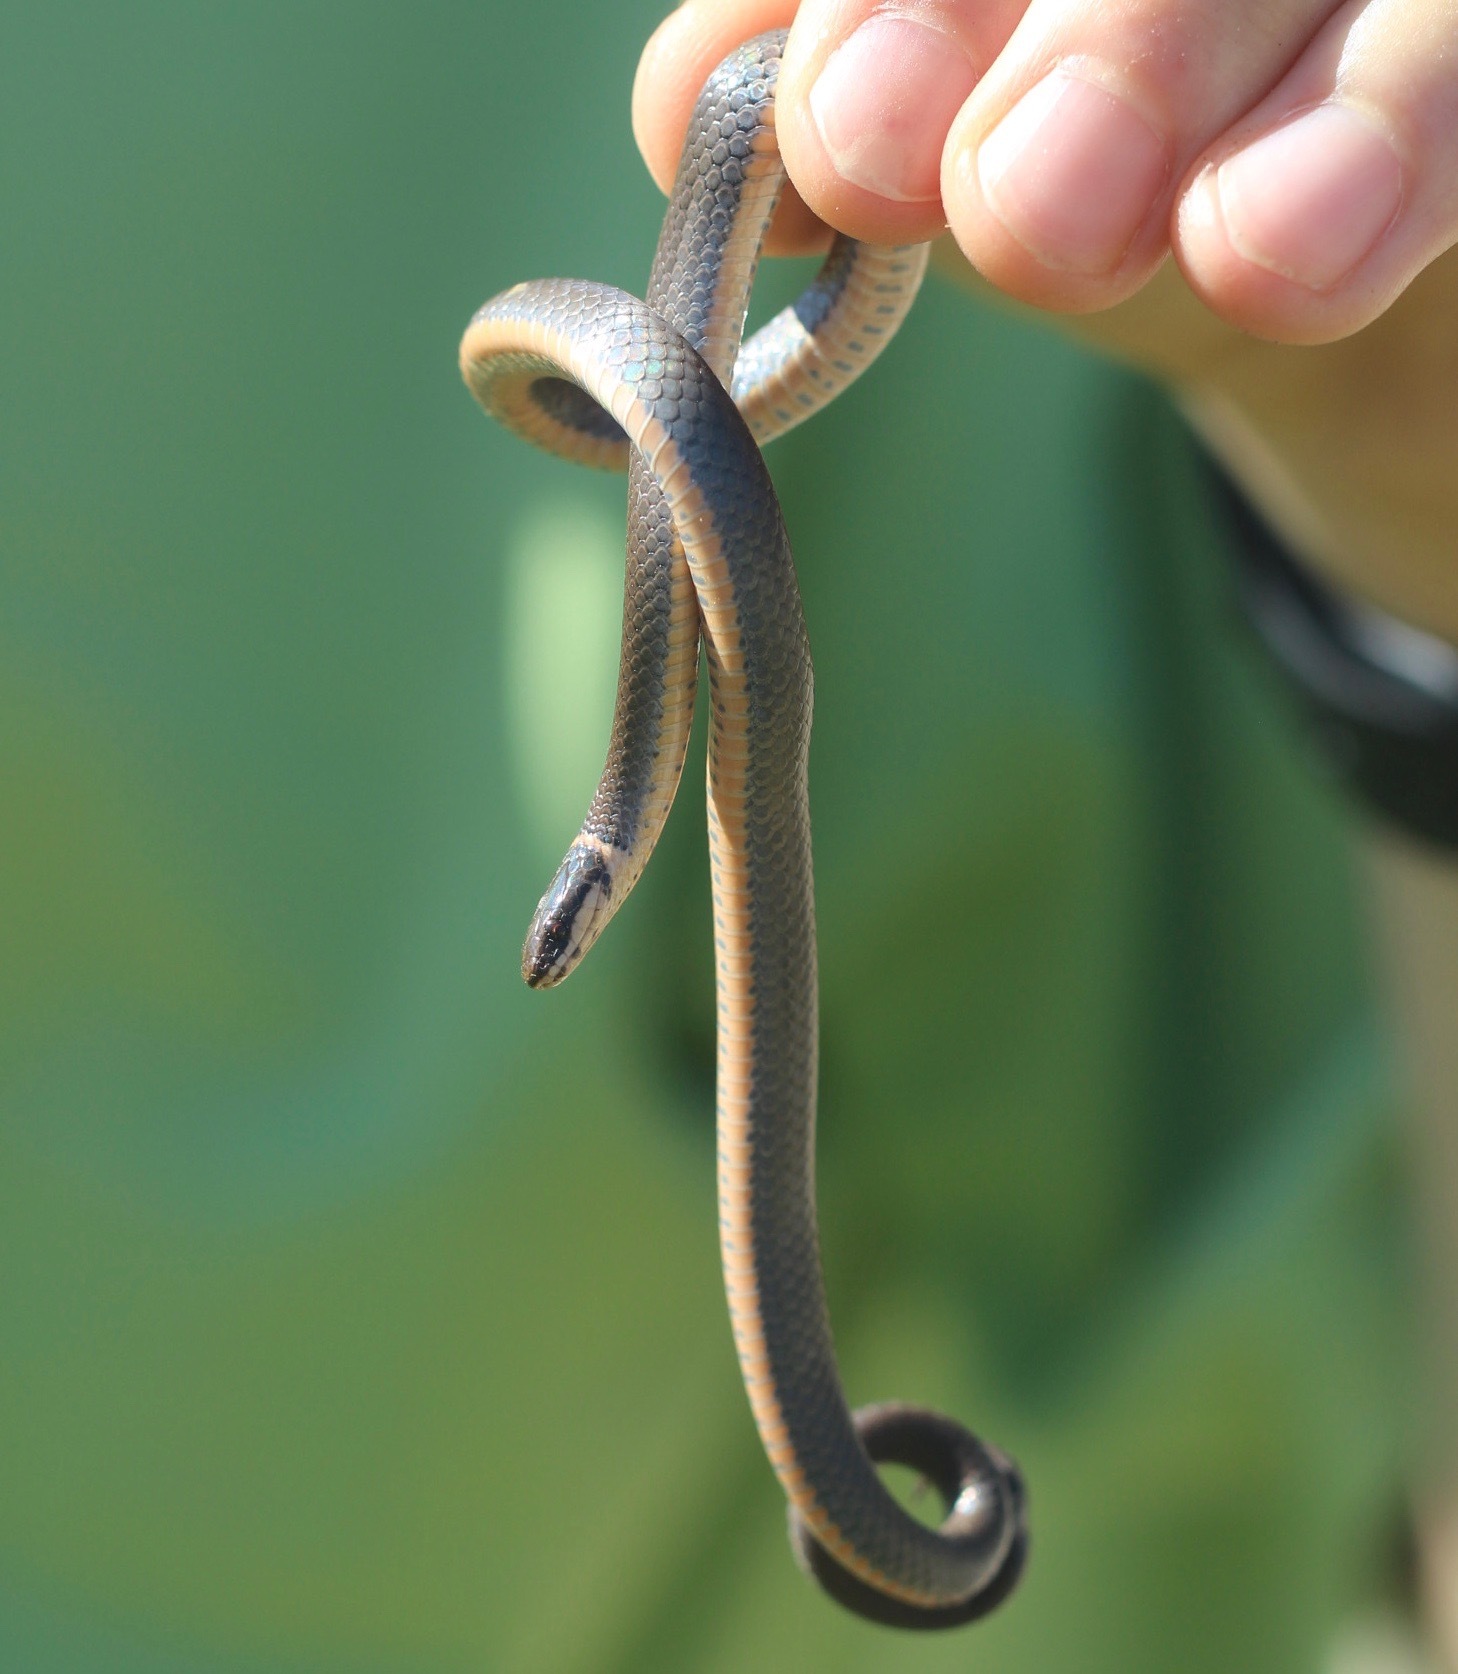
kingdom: Animalia
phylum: Chordata
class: Squamata
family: Colubridae
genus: Diadophis
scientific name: Diadophis punctatus
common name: Ringneck snake
